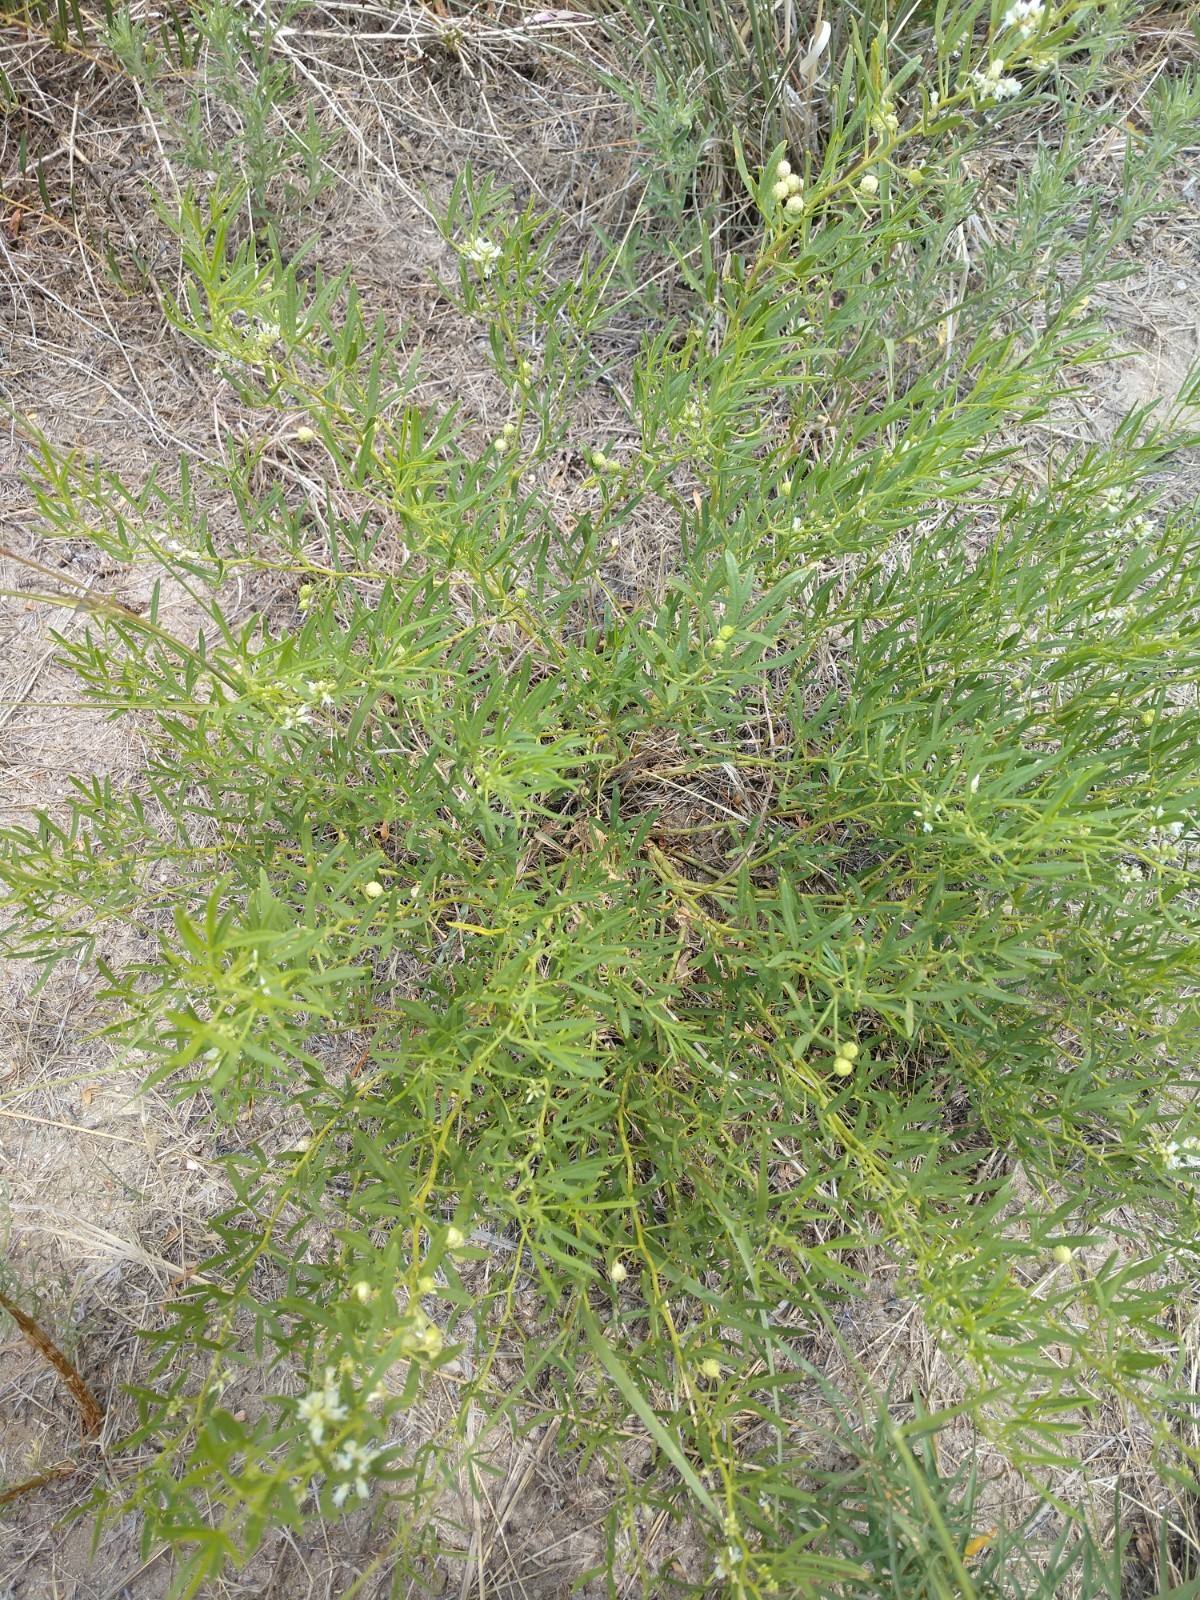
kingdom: Plantae
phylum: Tracheophyta
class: Magnoliopsida
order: Fabales
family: Fabaceae
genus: Ladeania
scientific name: Ladeania lanceolata
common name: Dune scurf-pea
